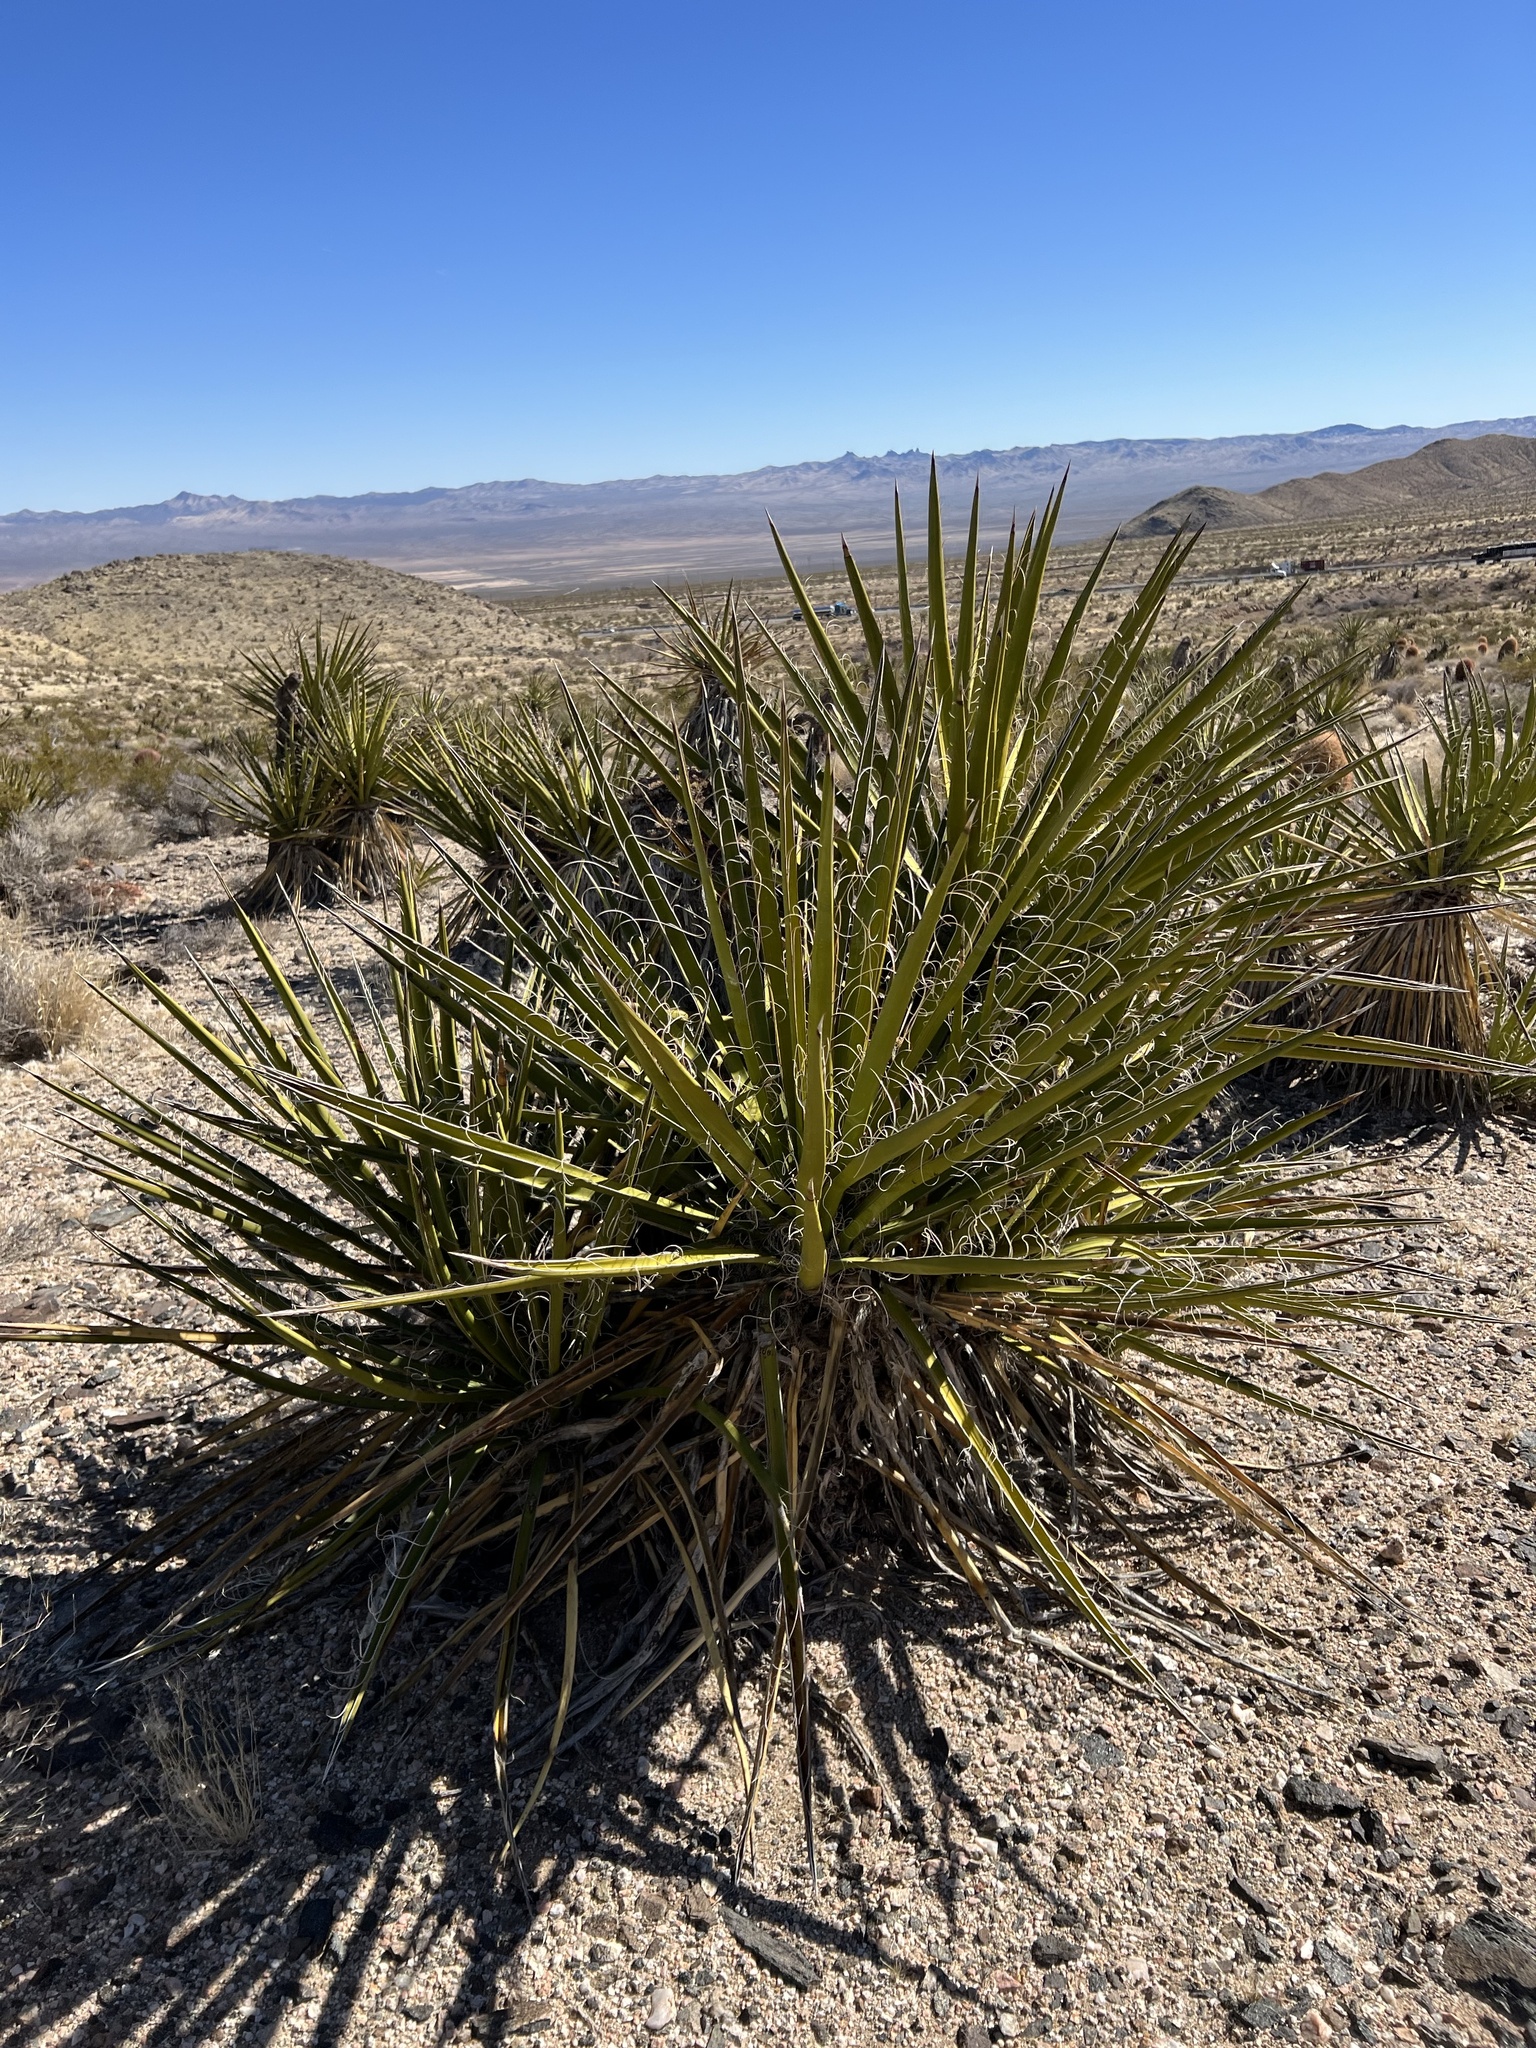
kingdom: Plantae
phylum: Tracheophyta
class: Liliopsida
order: Asparagales
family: Asparagaceae
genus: Yucca
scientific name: Yucca schidigera
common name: Mojave yucca
